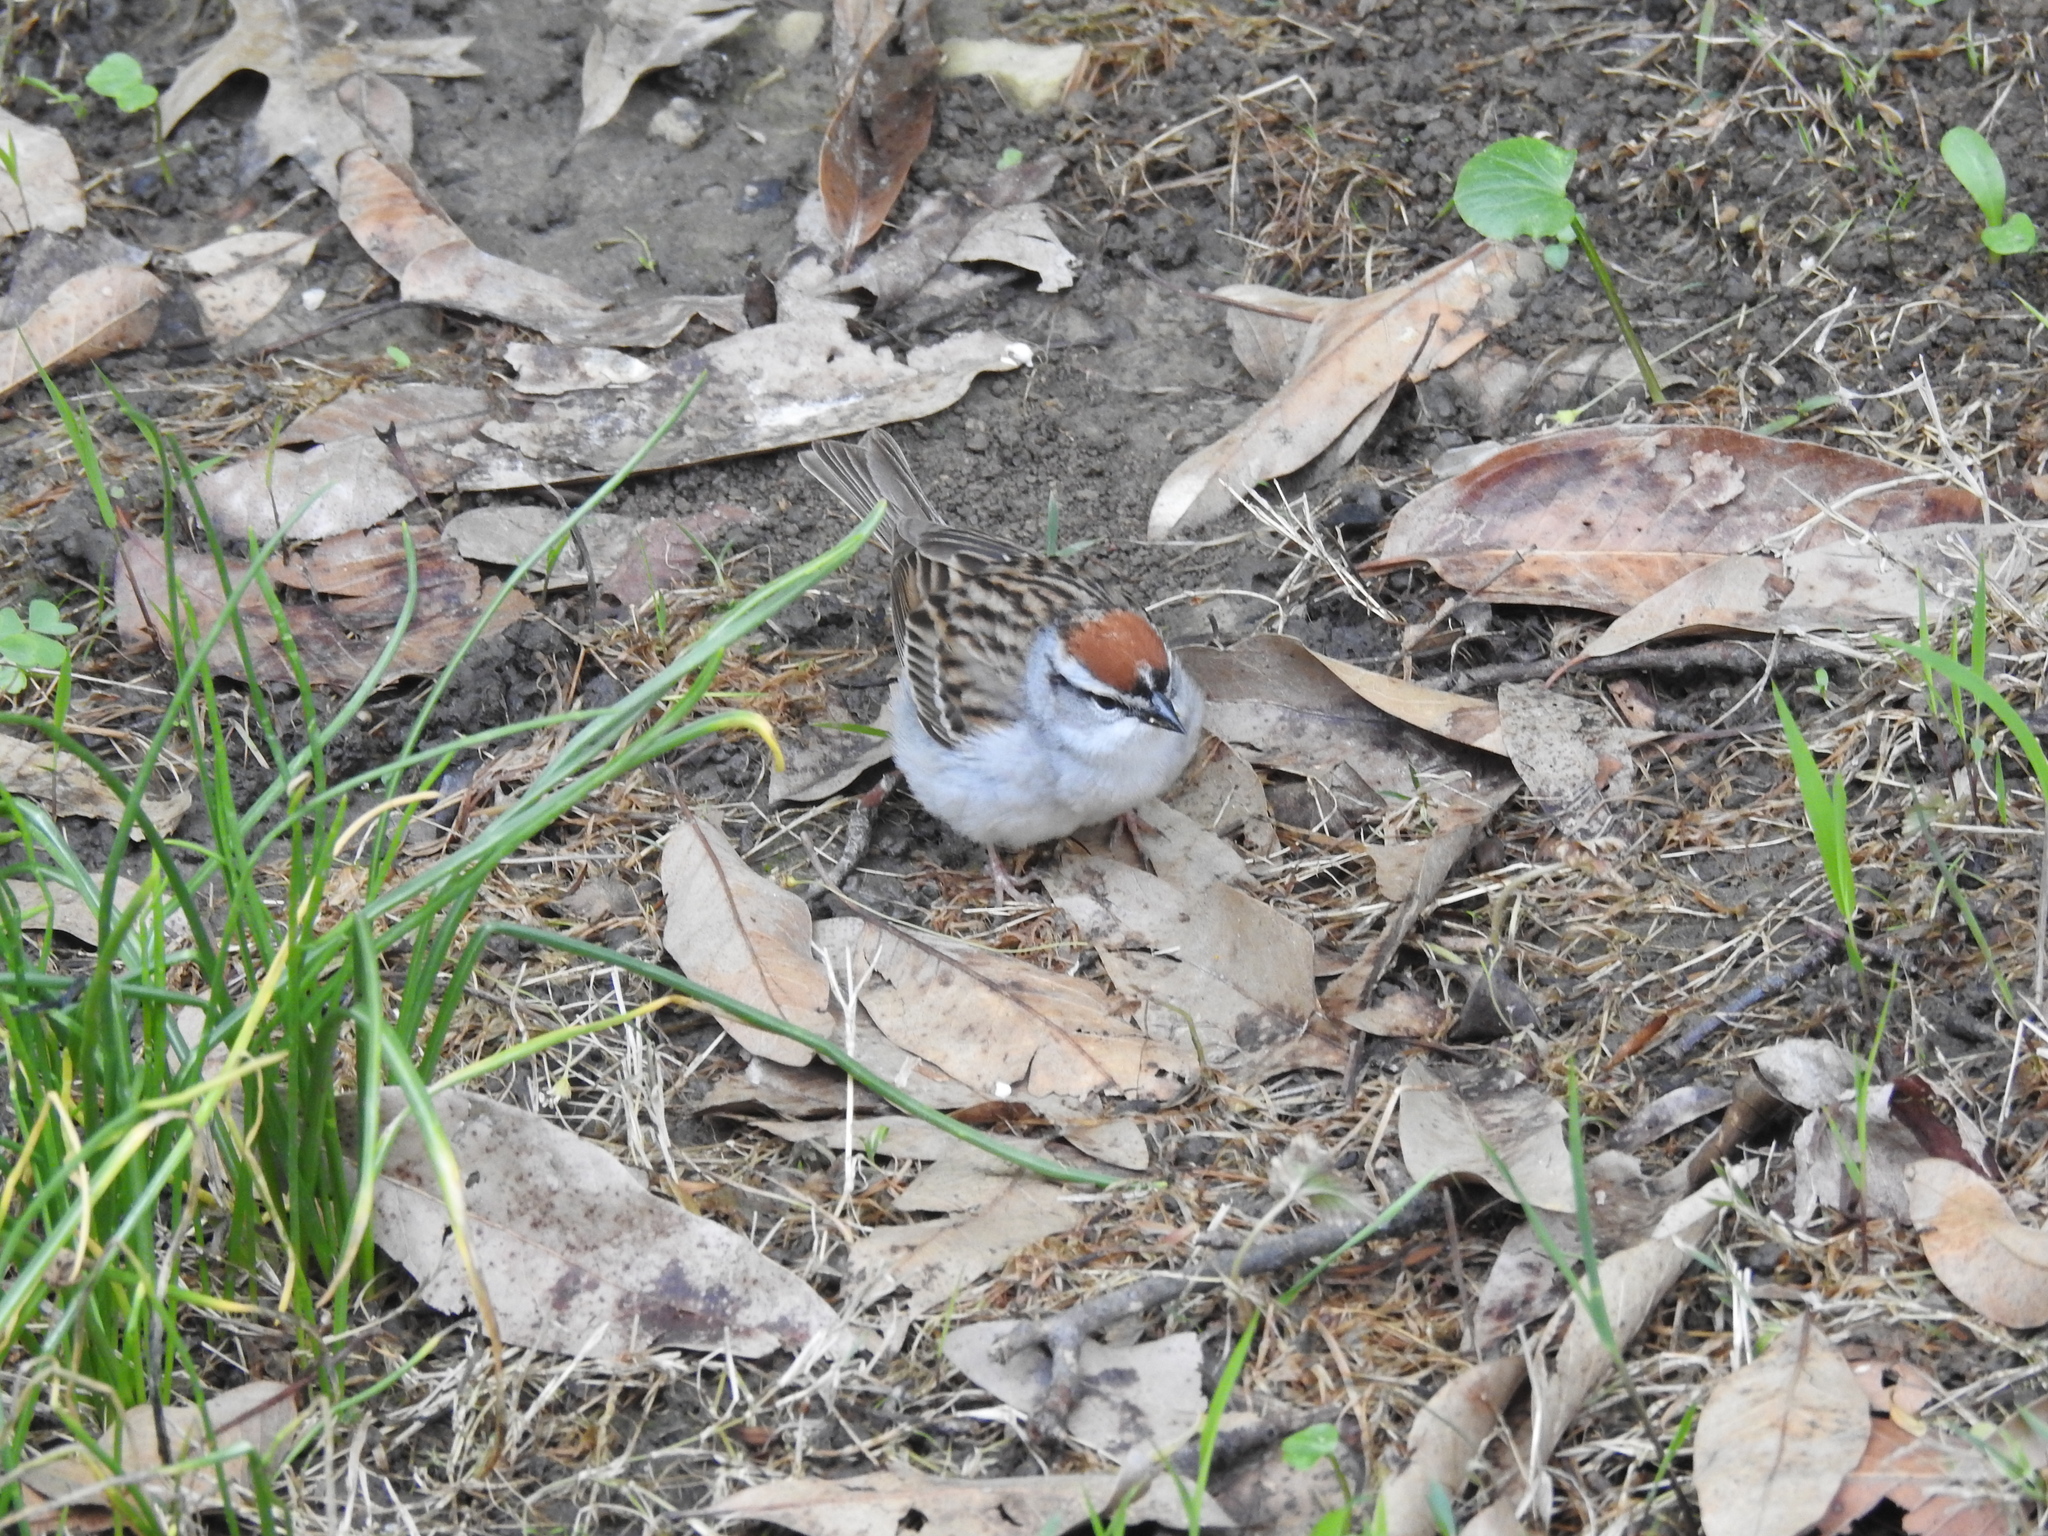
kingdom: Animalia
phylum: Chordata
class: Aves
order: Passeriformes
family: Passerellidae
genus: Spizella
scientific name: Spizella passerina
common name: Chipping sparrow
